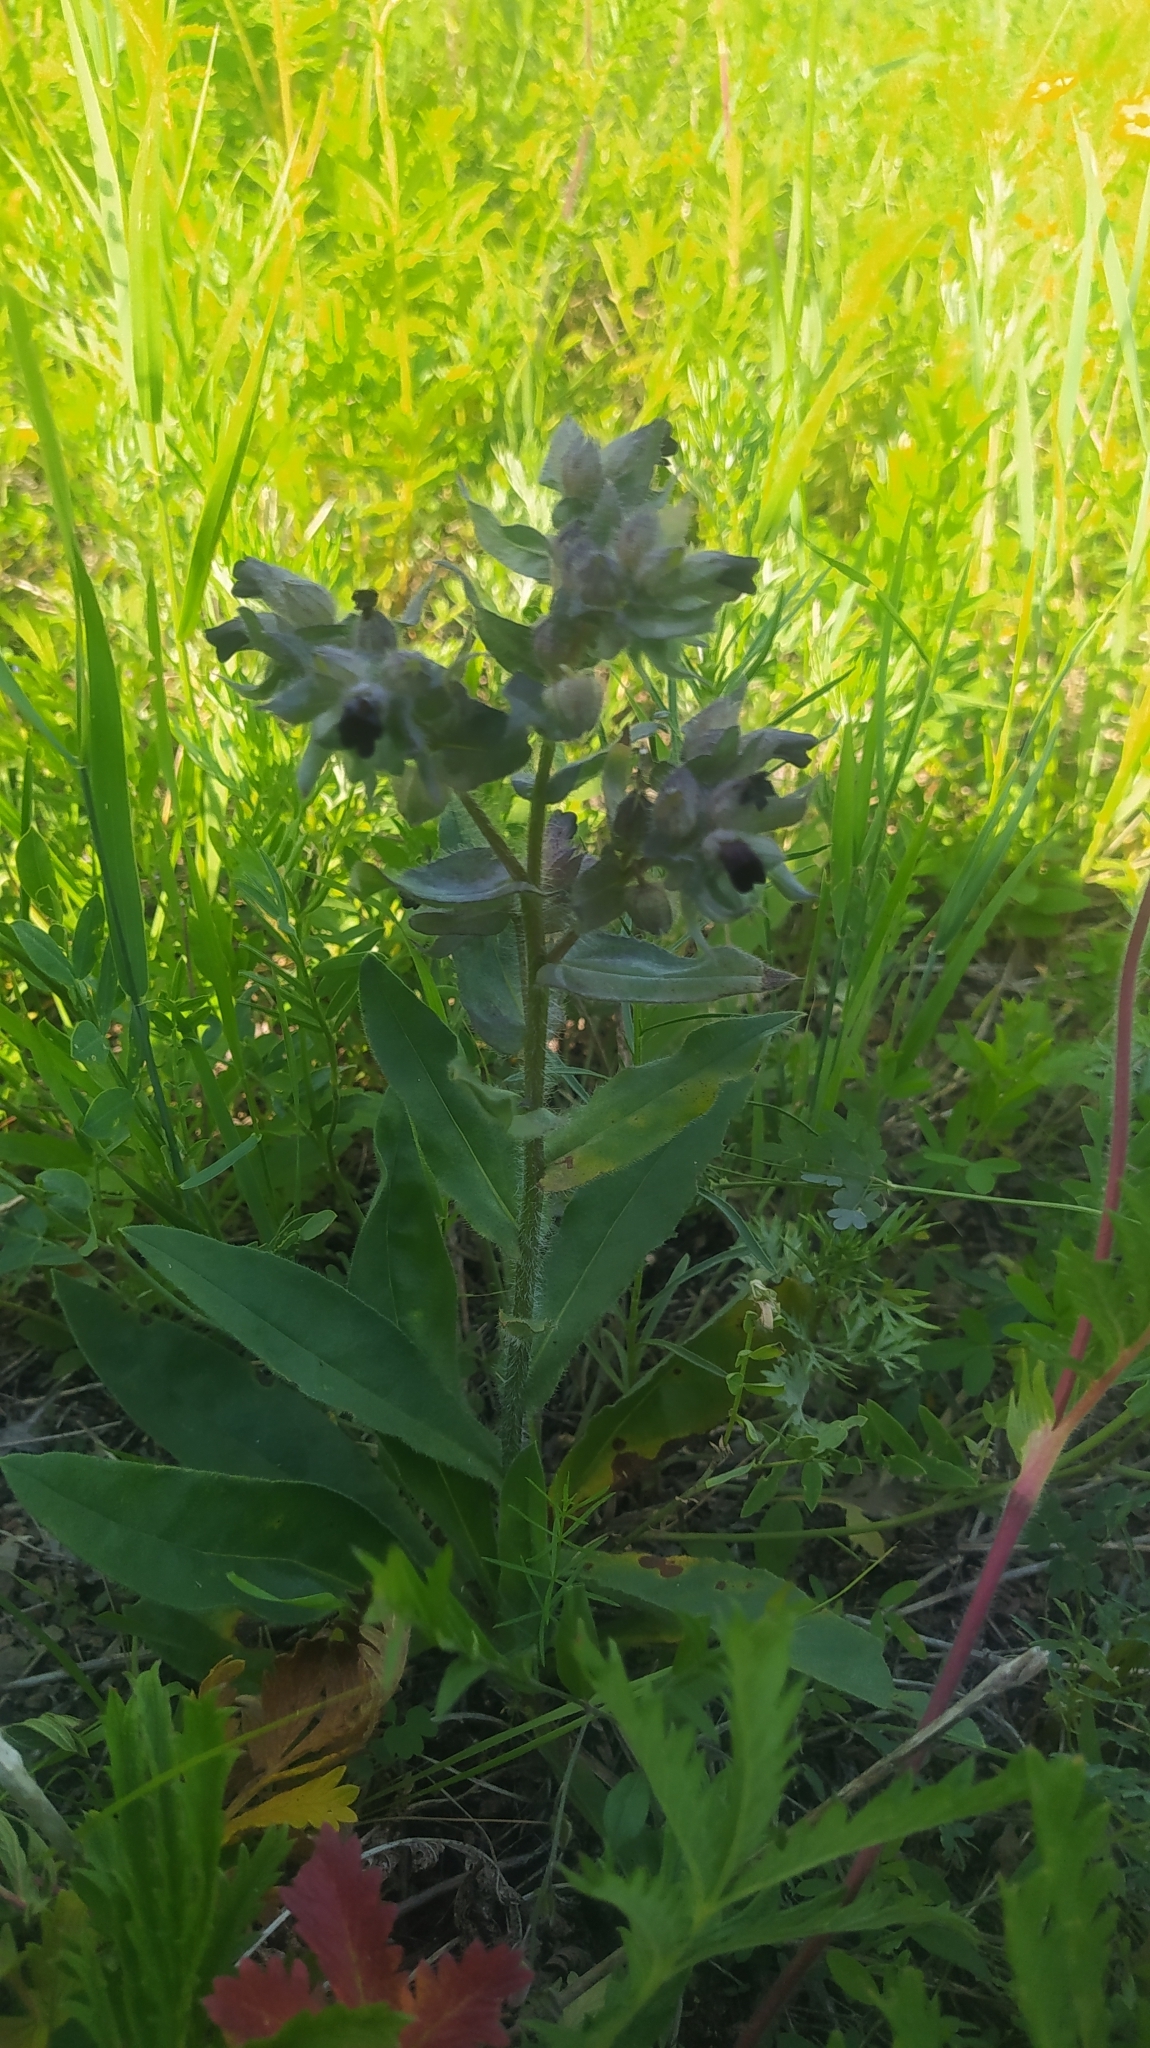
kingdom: Plantae
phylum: Tracheophyta
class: Magnoliopsida
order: Boraginales
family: Boraginaceae
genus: Nonea
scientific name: Nonea pulla
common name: Brown nonea
